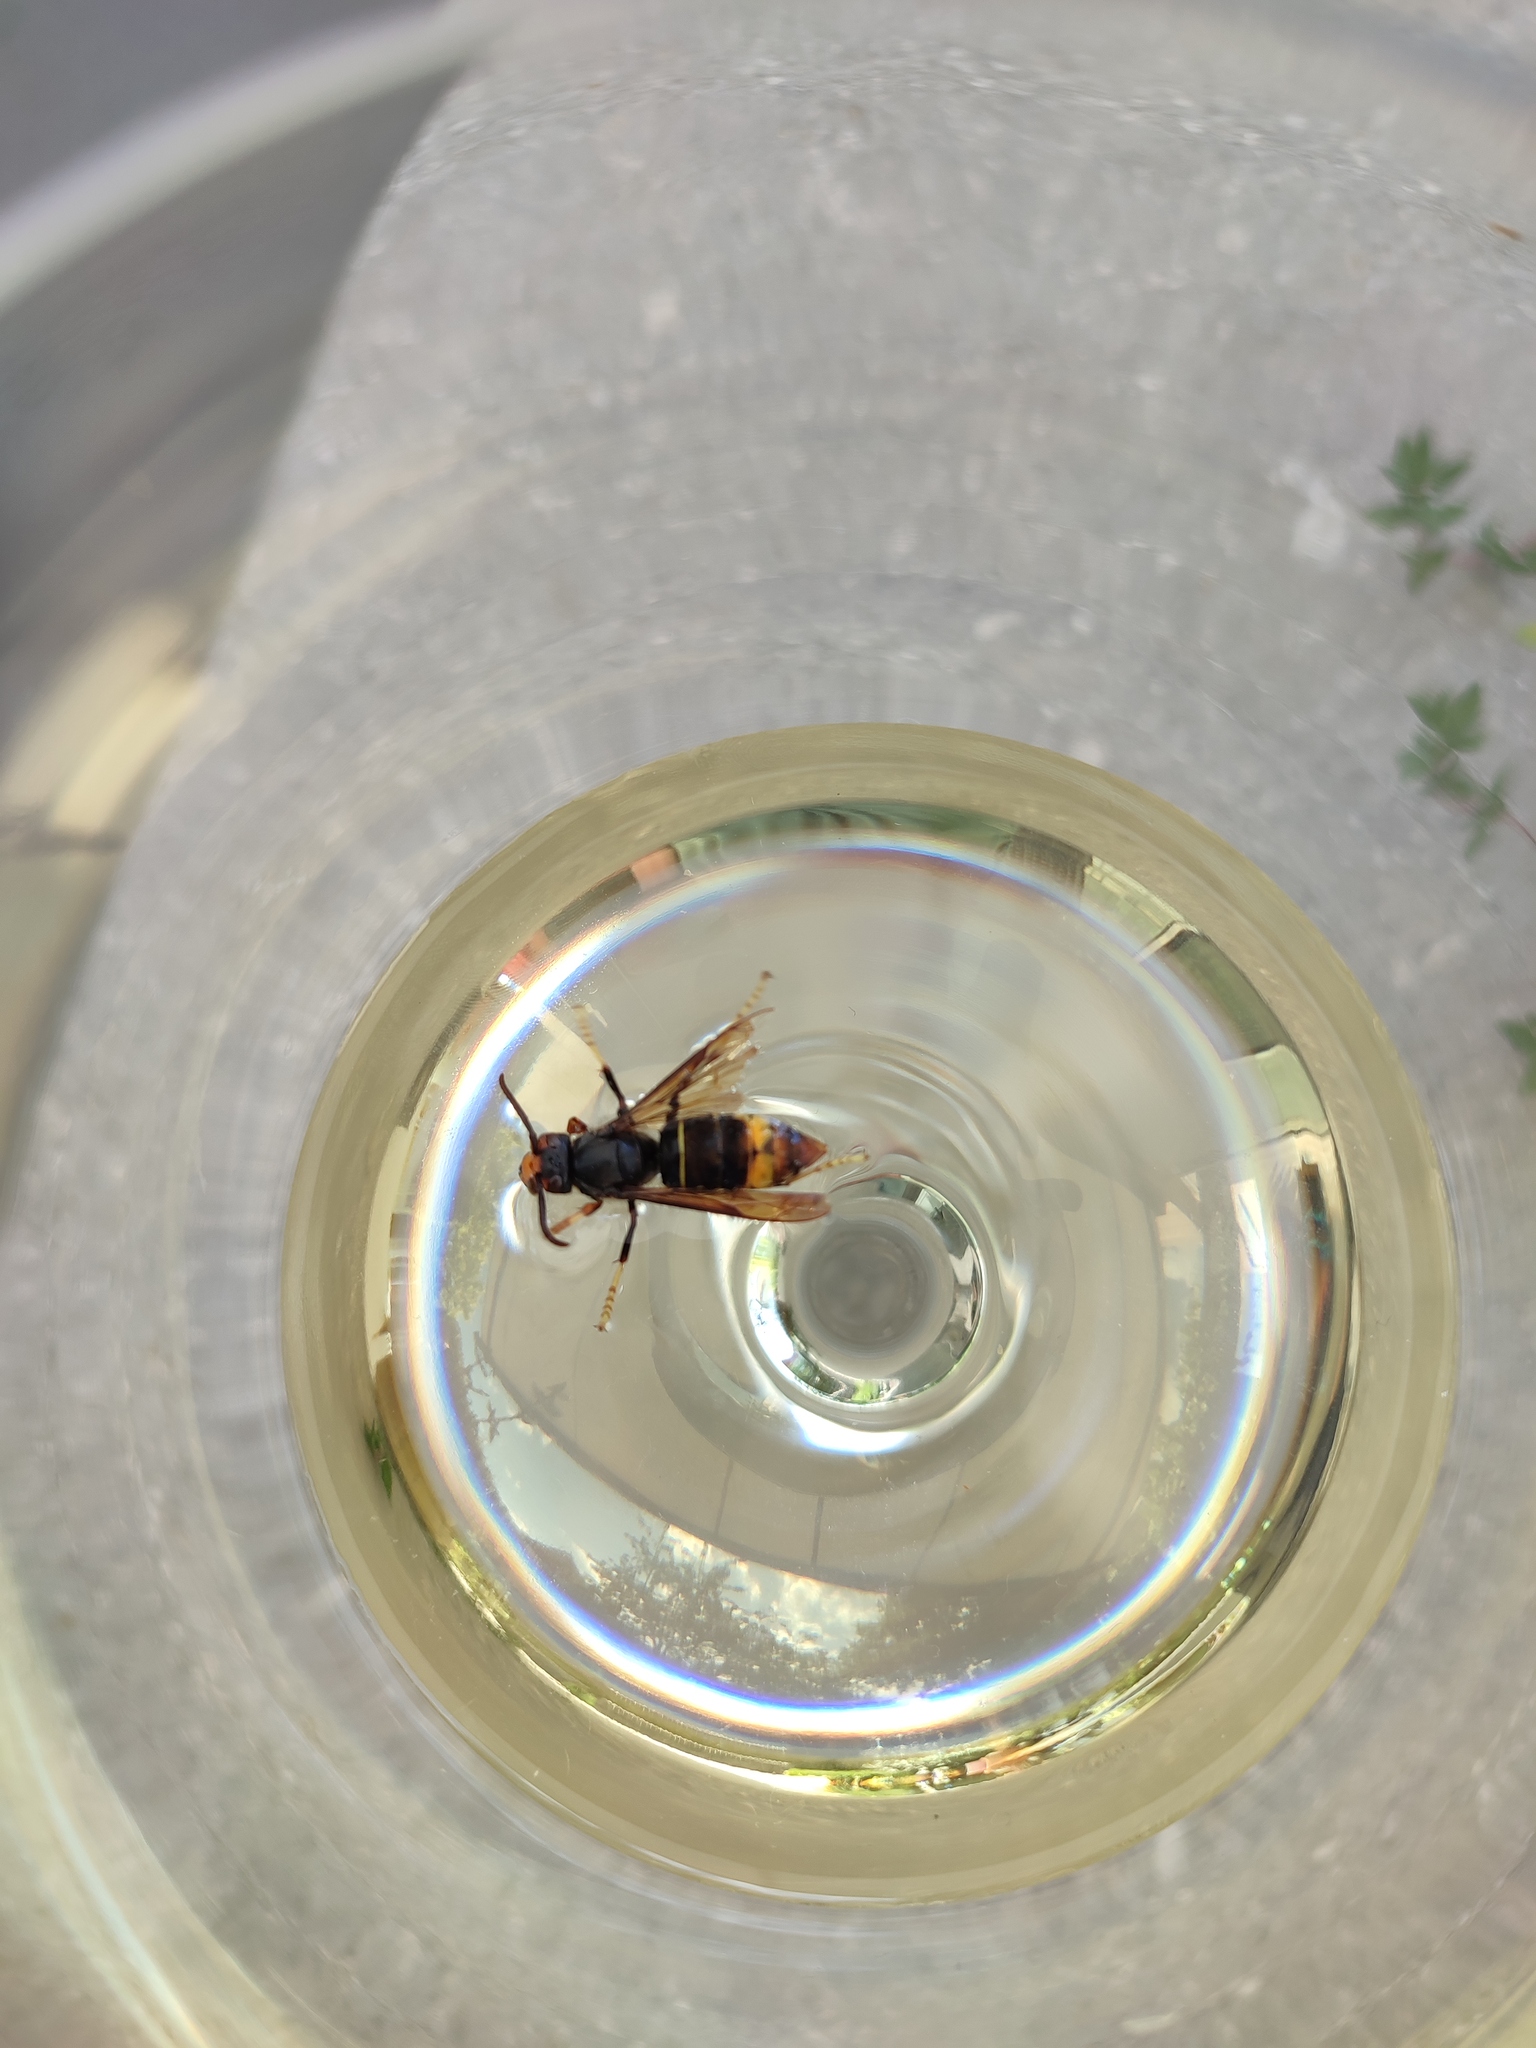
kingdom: Animalia
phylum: Arthropoda
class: Insecta
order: Hymenoptera
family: Vespidae
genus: Vespa
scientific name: Vespa velutina
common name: Asian hornet
